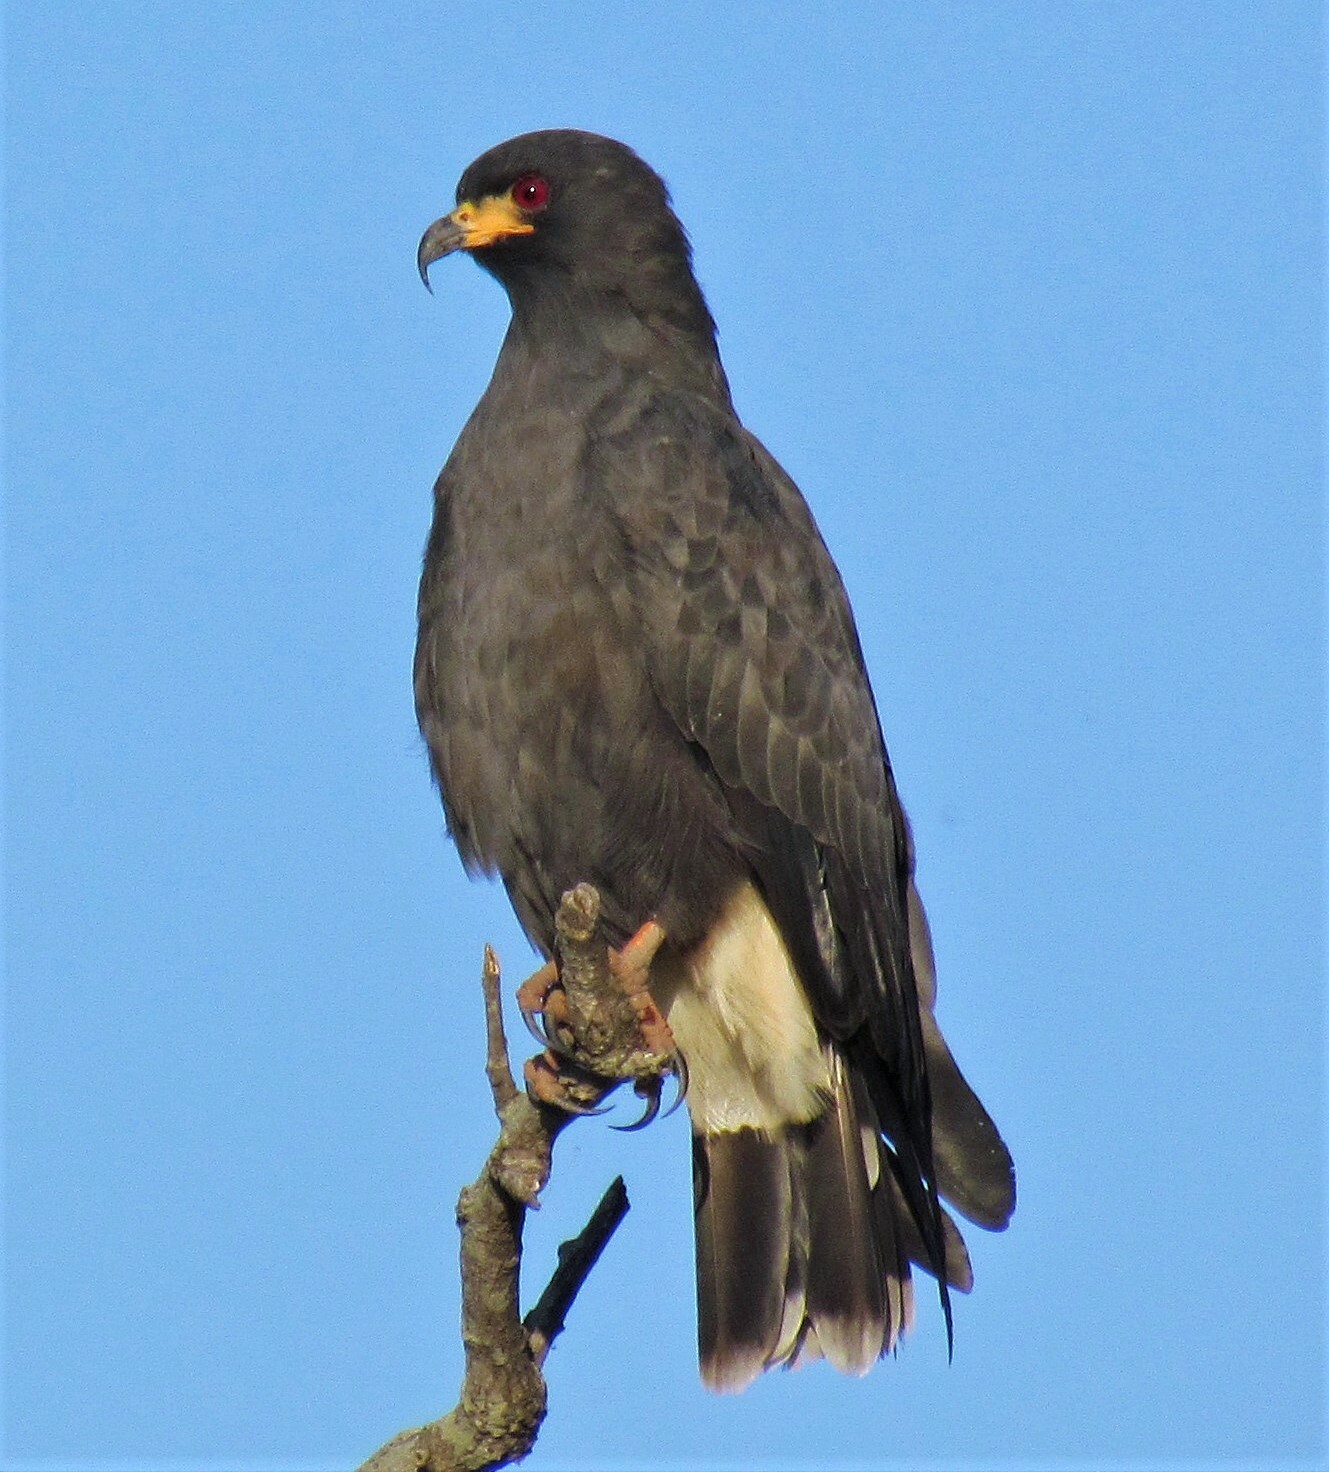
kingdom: Animalia
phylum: Chordata
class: Aves
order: Accipitriformes
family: Accipitridae
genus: Rostrhamus
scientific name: Rostrhamus sociabilis
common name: Snail kite
